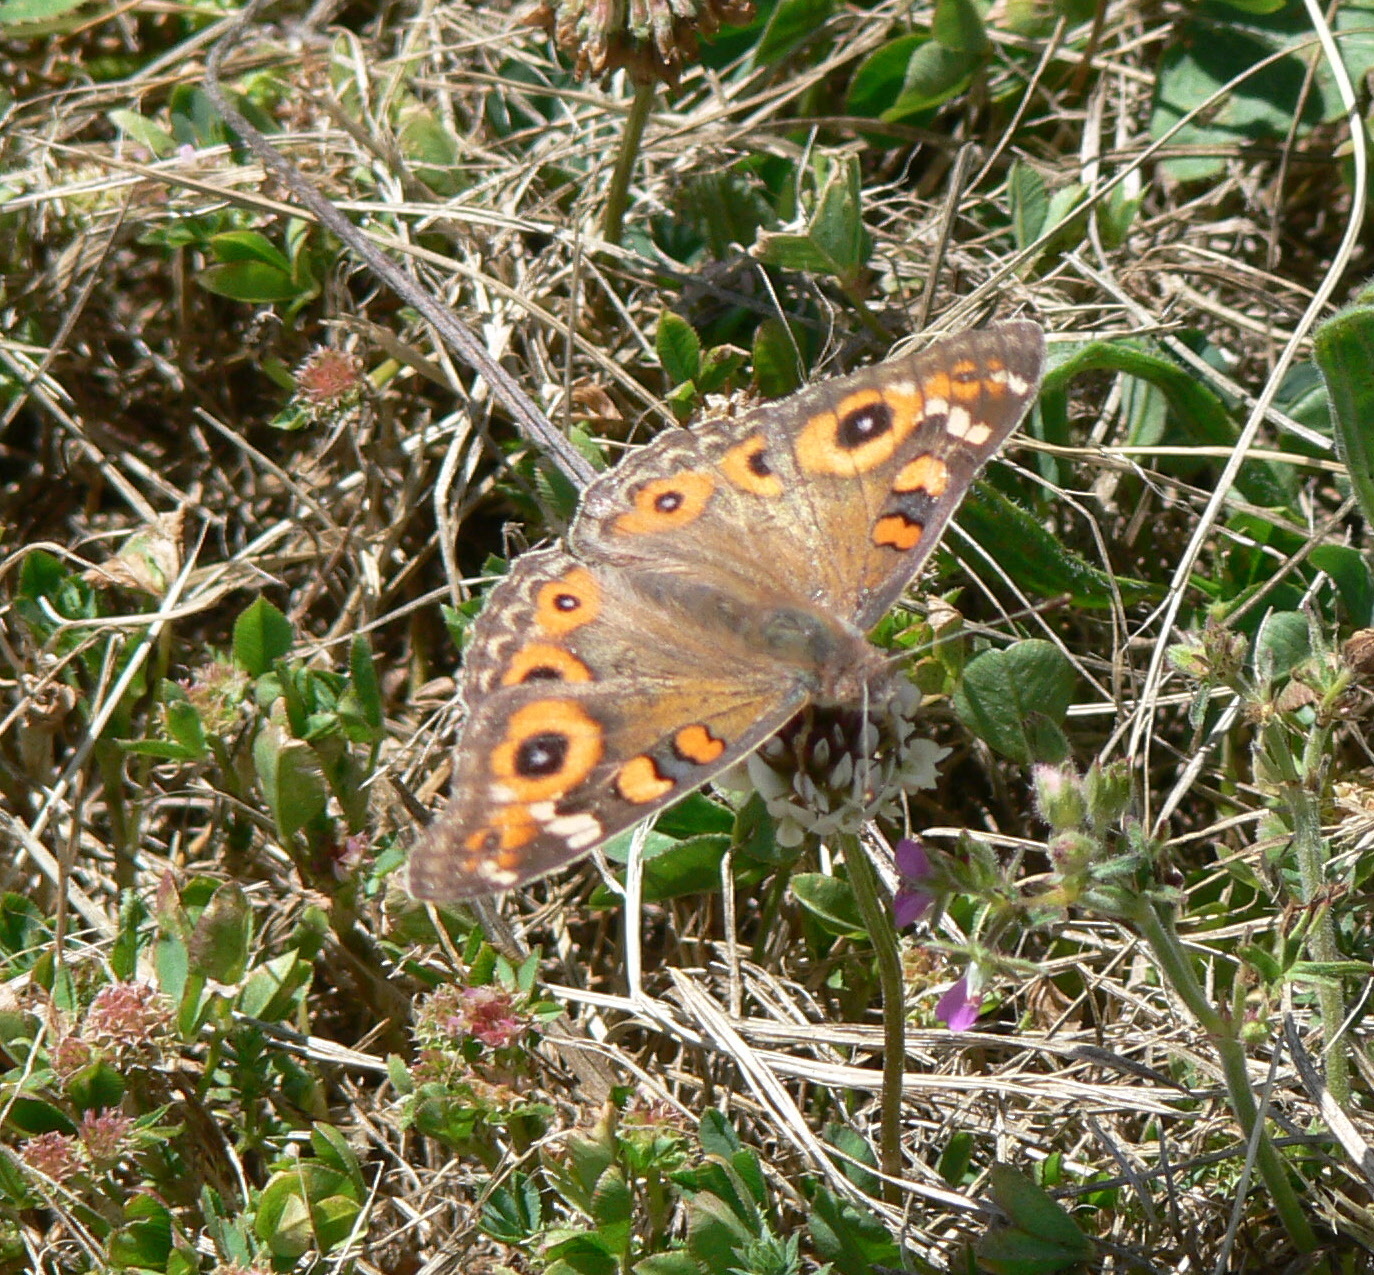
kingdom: Animalia
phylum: Arthropoda
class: Insecta
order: Lepidoptera
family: Nymphalidae
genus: Junonia
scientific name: Junonia villida
